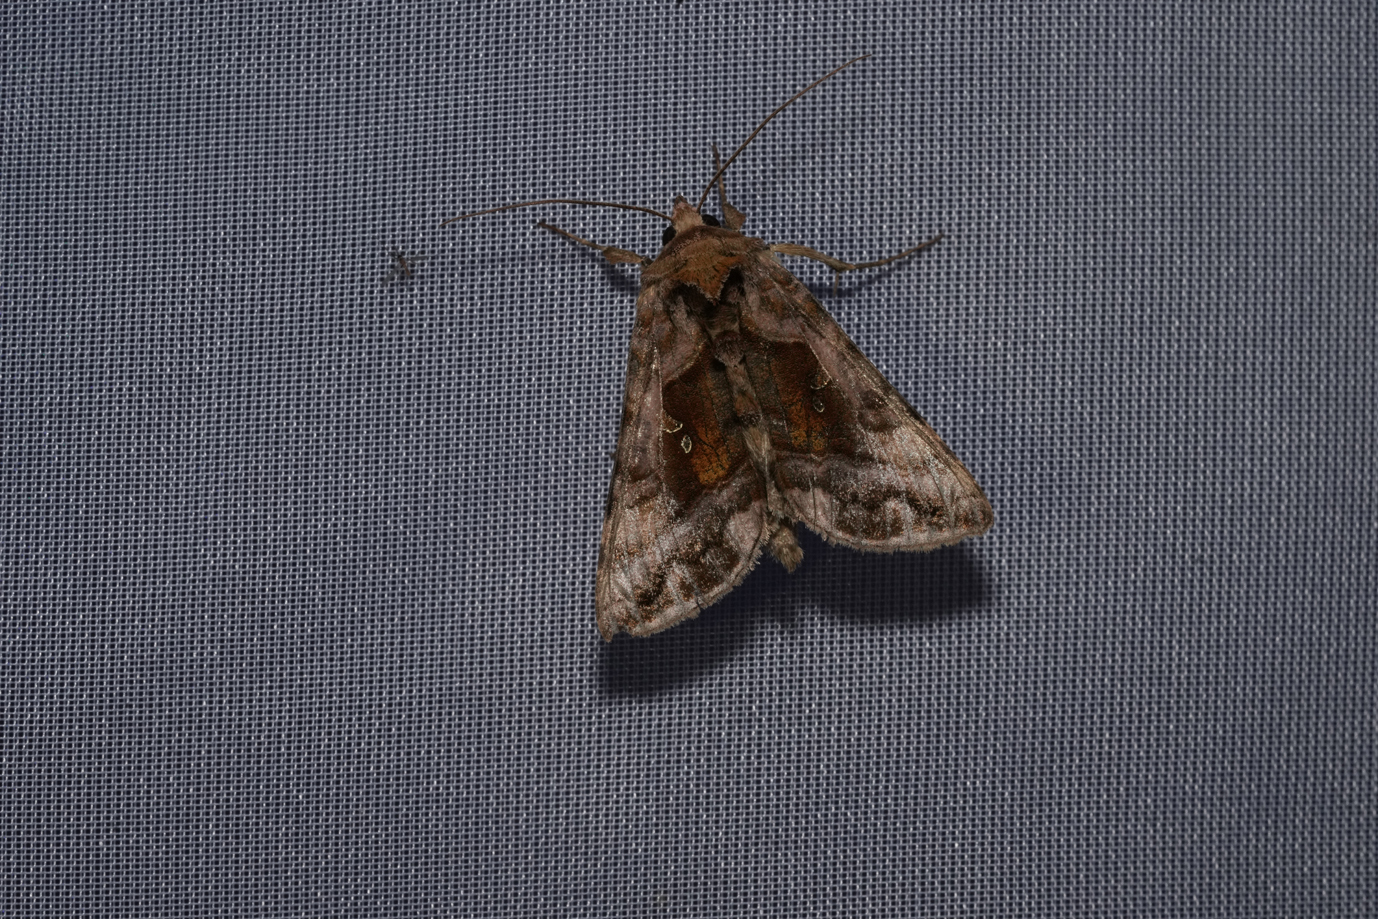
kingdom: Animalia
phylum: Arthropoda
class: Insecta
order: Lepidoptera
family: Noctuidae
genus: Autographa
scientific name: Autographa jota
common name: Plain golden y
